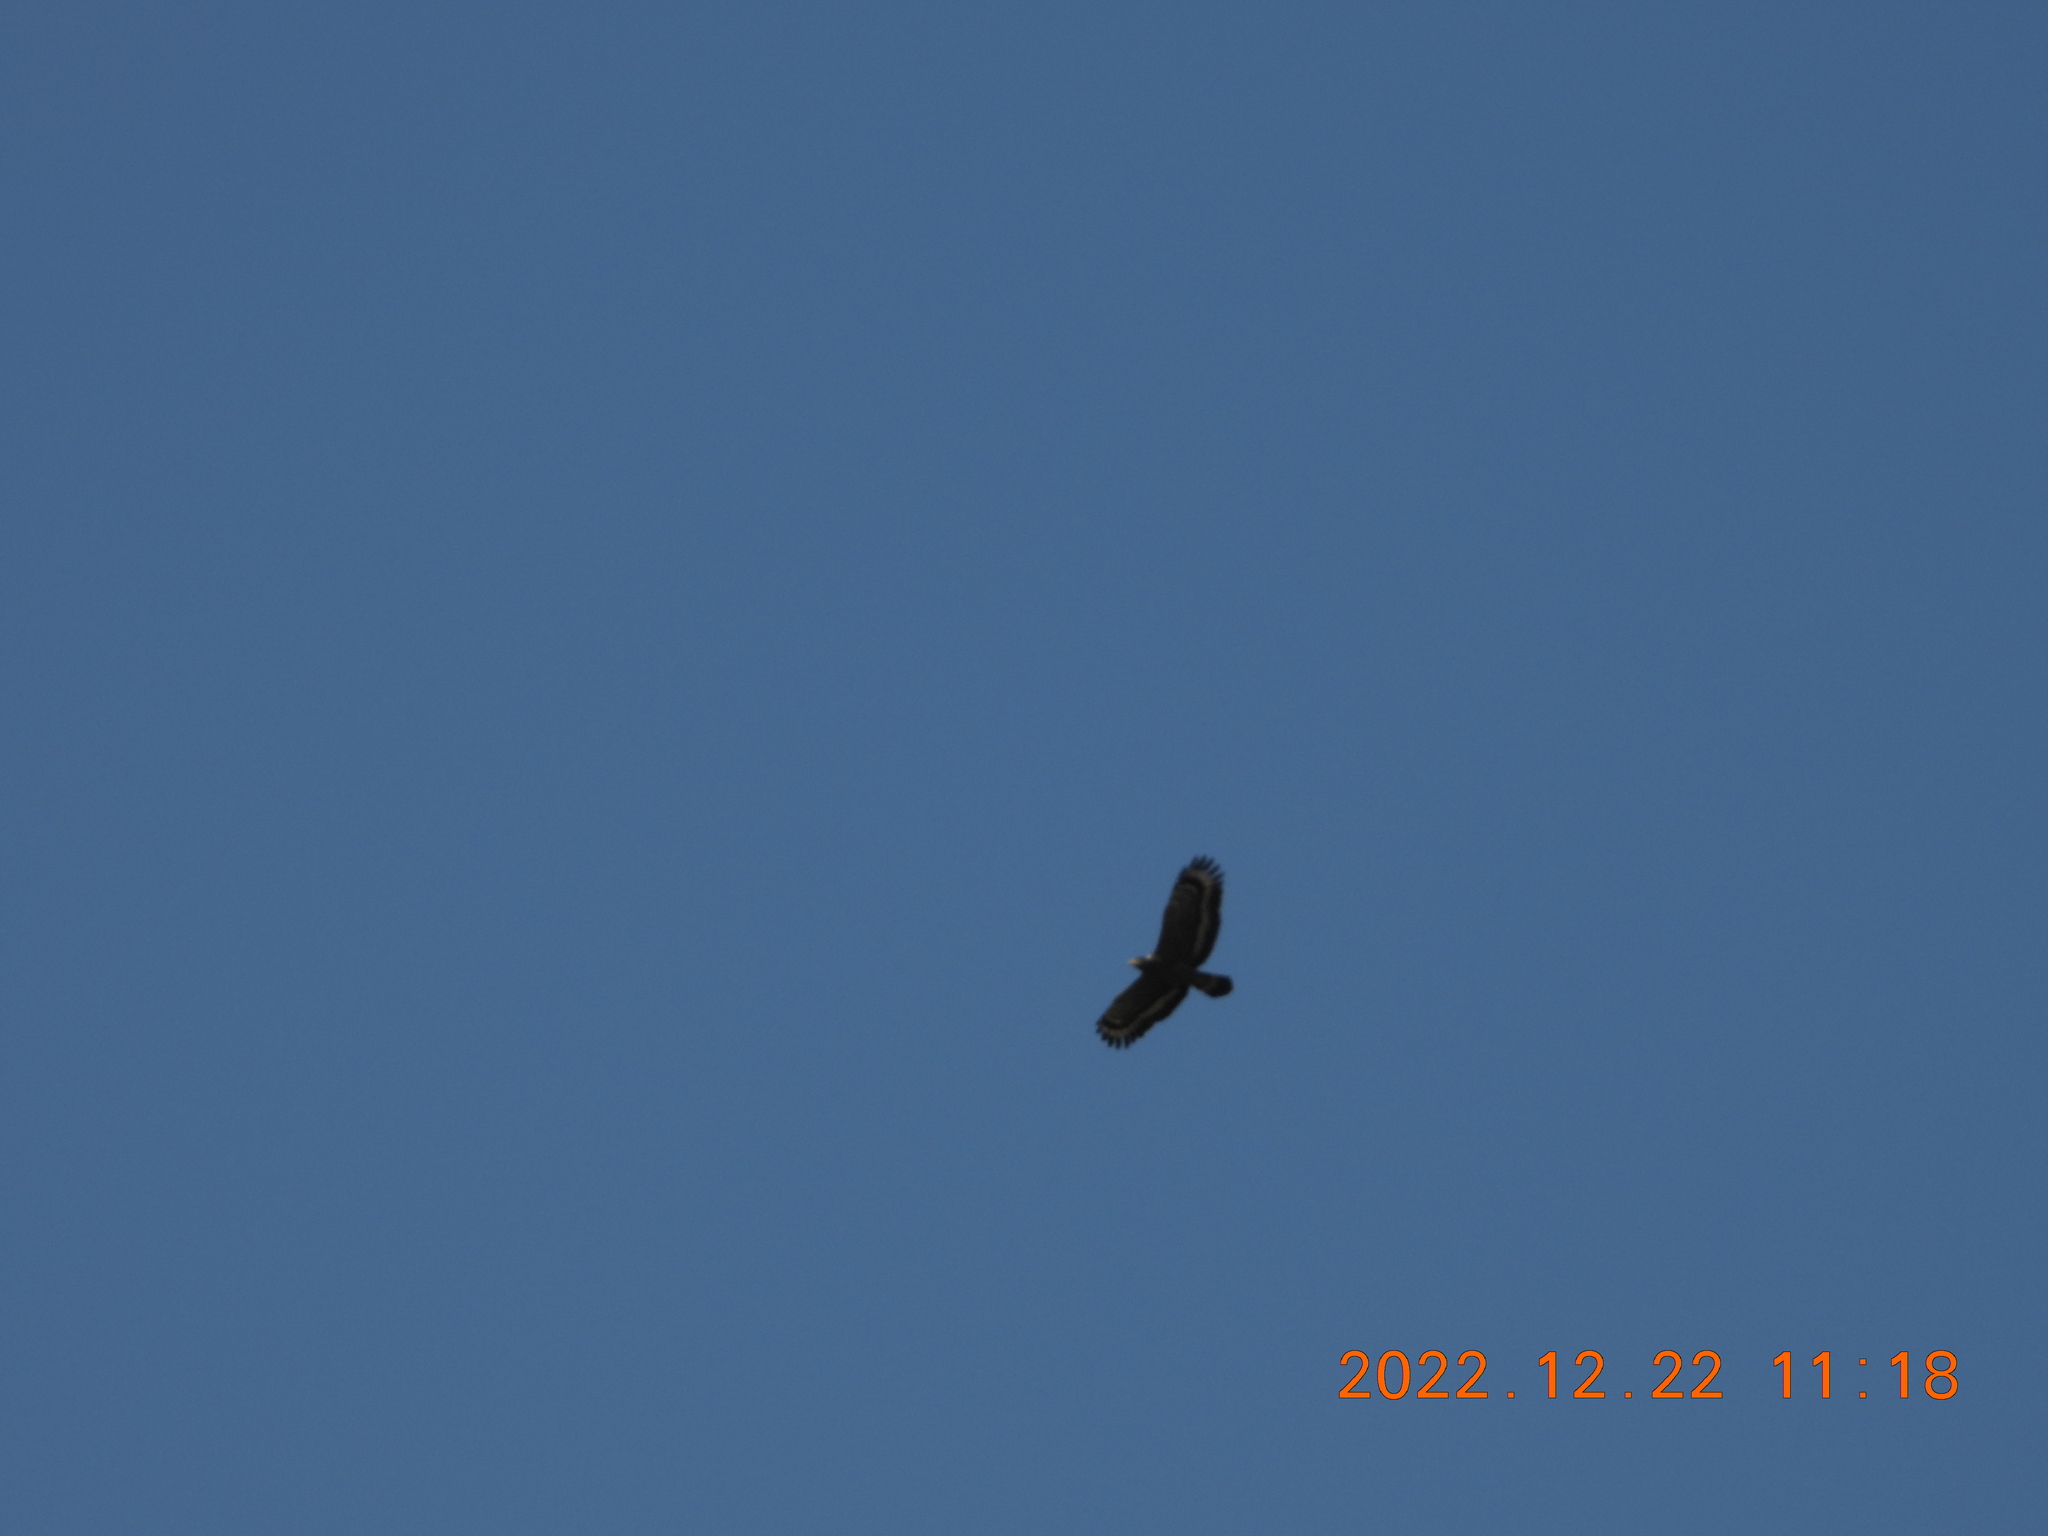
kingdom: Animalia
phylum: Chordata
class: Aves
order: Accipitriformes
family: Accipitridae
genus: Spilornis
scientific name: Spilornis cheela
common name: Crested serpent eagle
